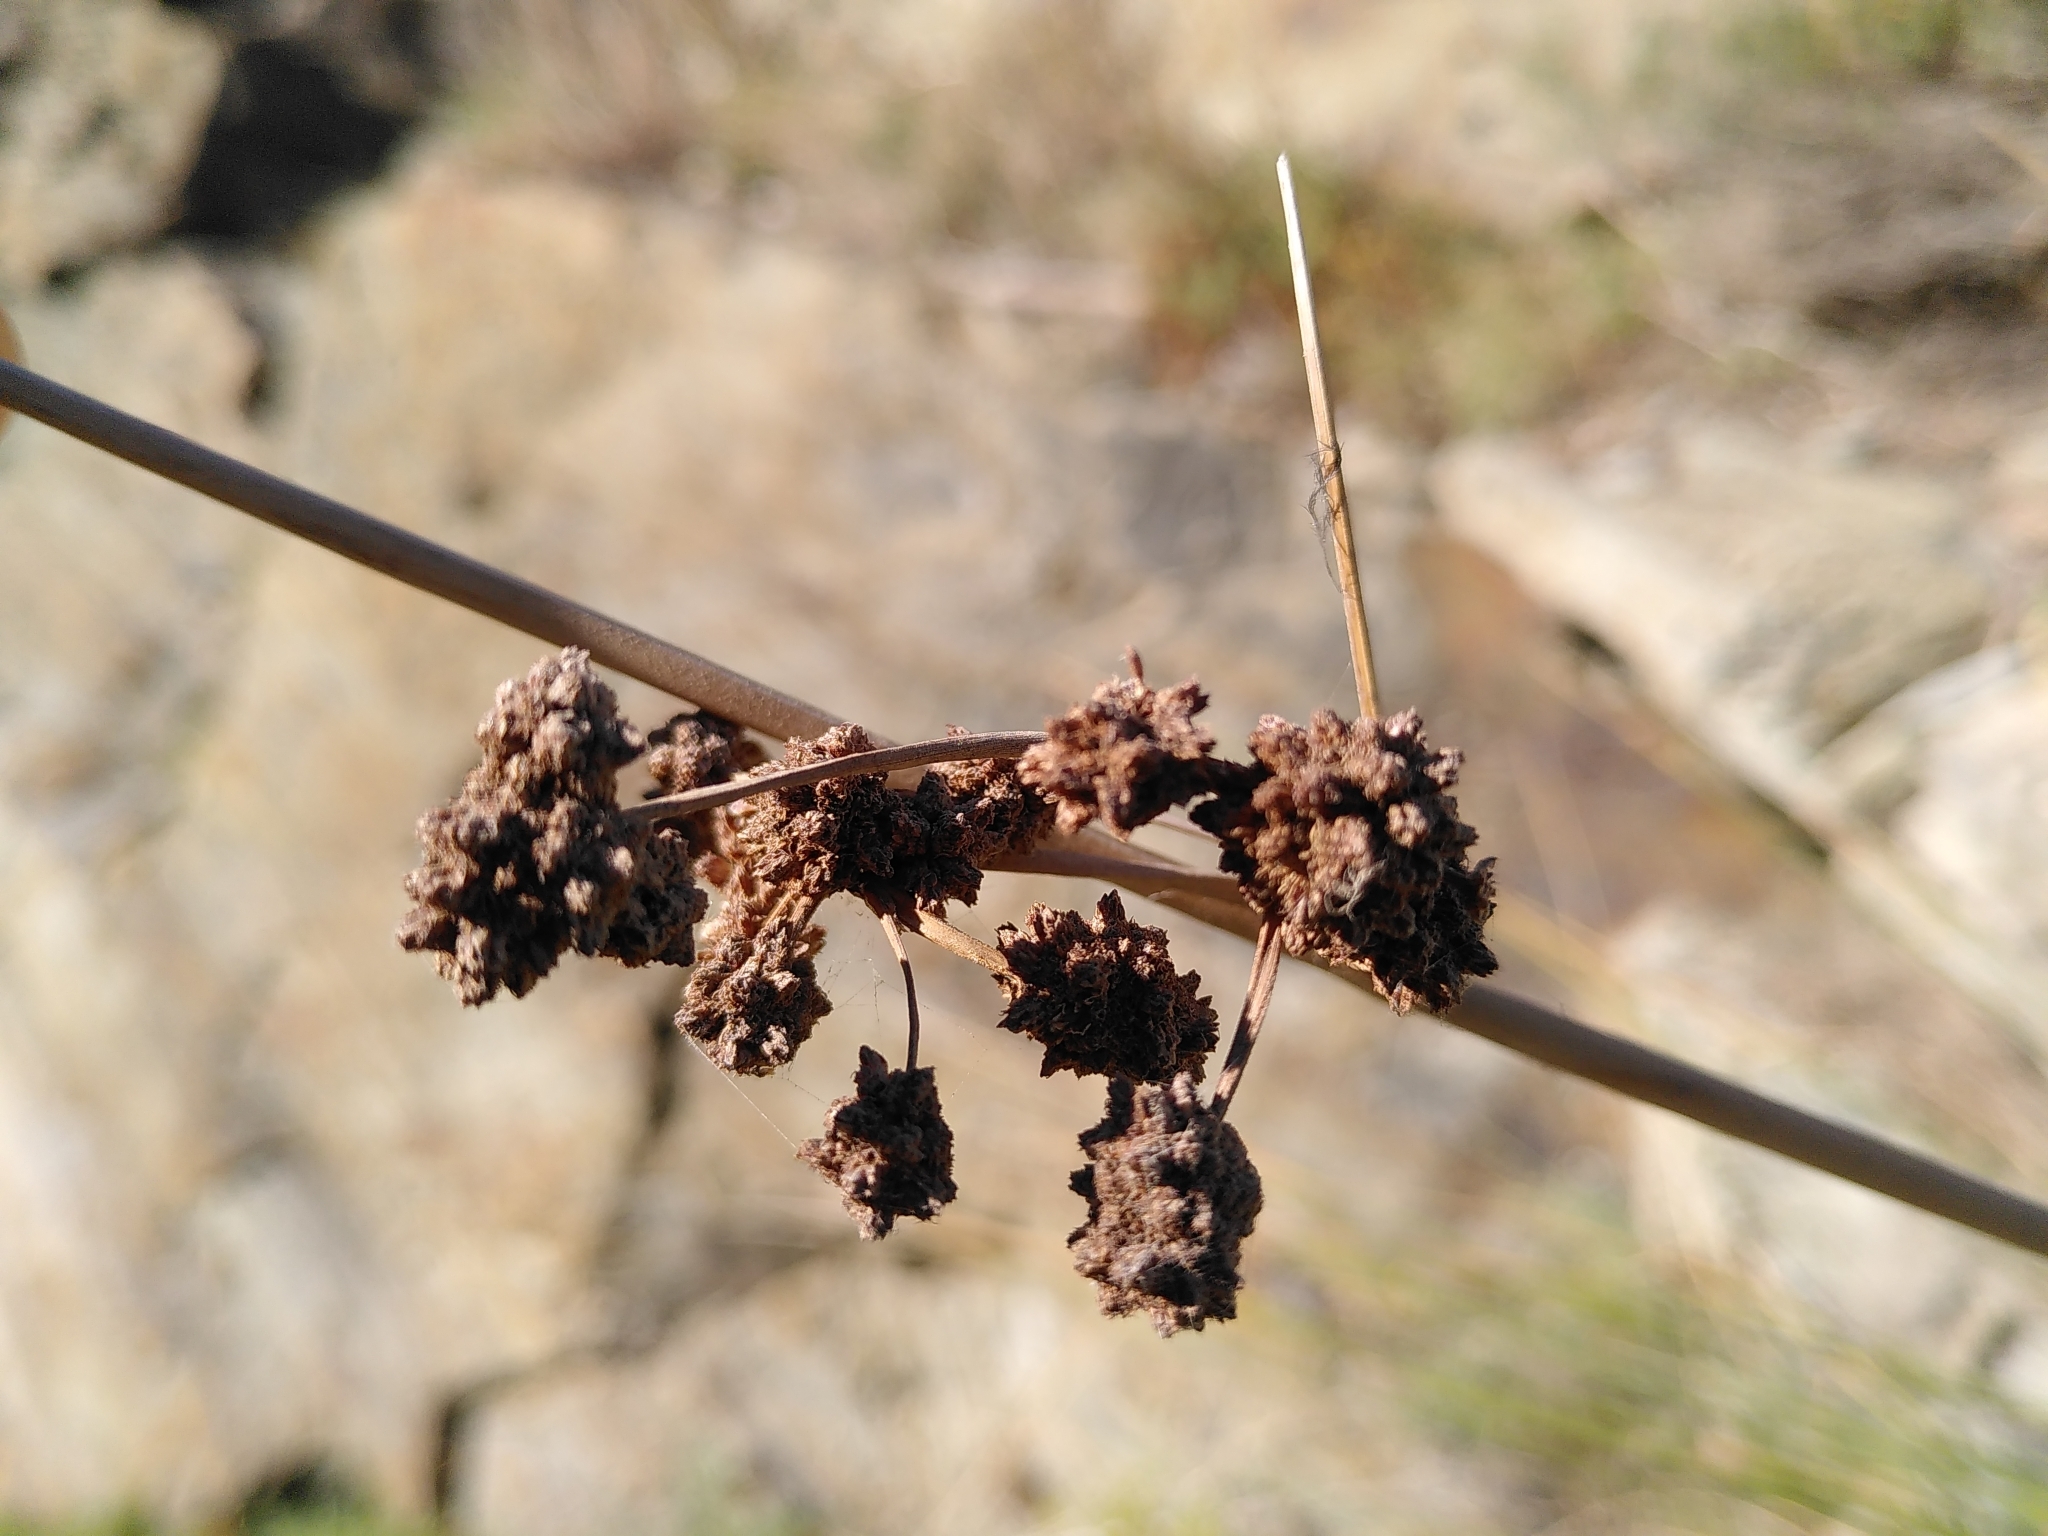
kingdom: Plantae
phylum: Tracheophyta
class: Liliopsida
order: Poales
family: Cyperaceae
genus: Scirpoides
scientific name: Scirpoides holoschoenus
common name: Round-headed club-rush
